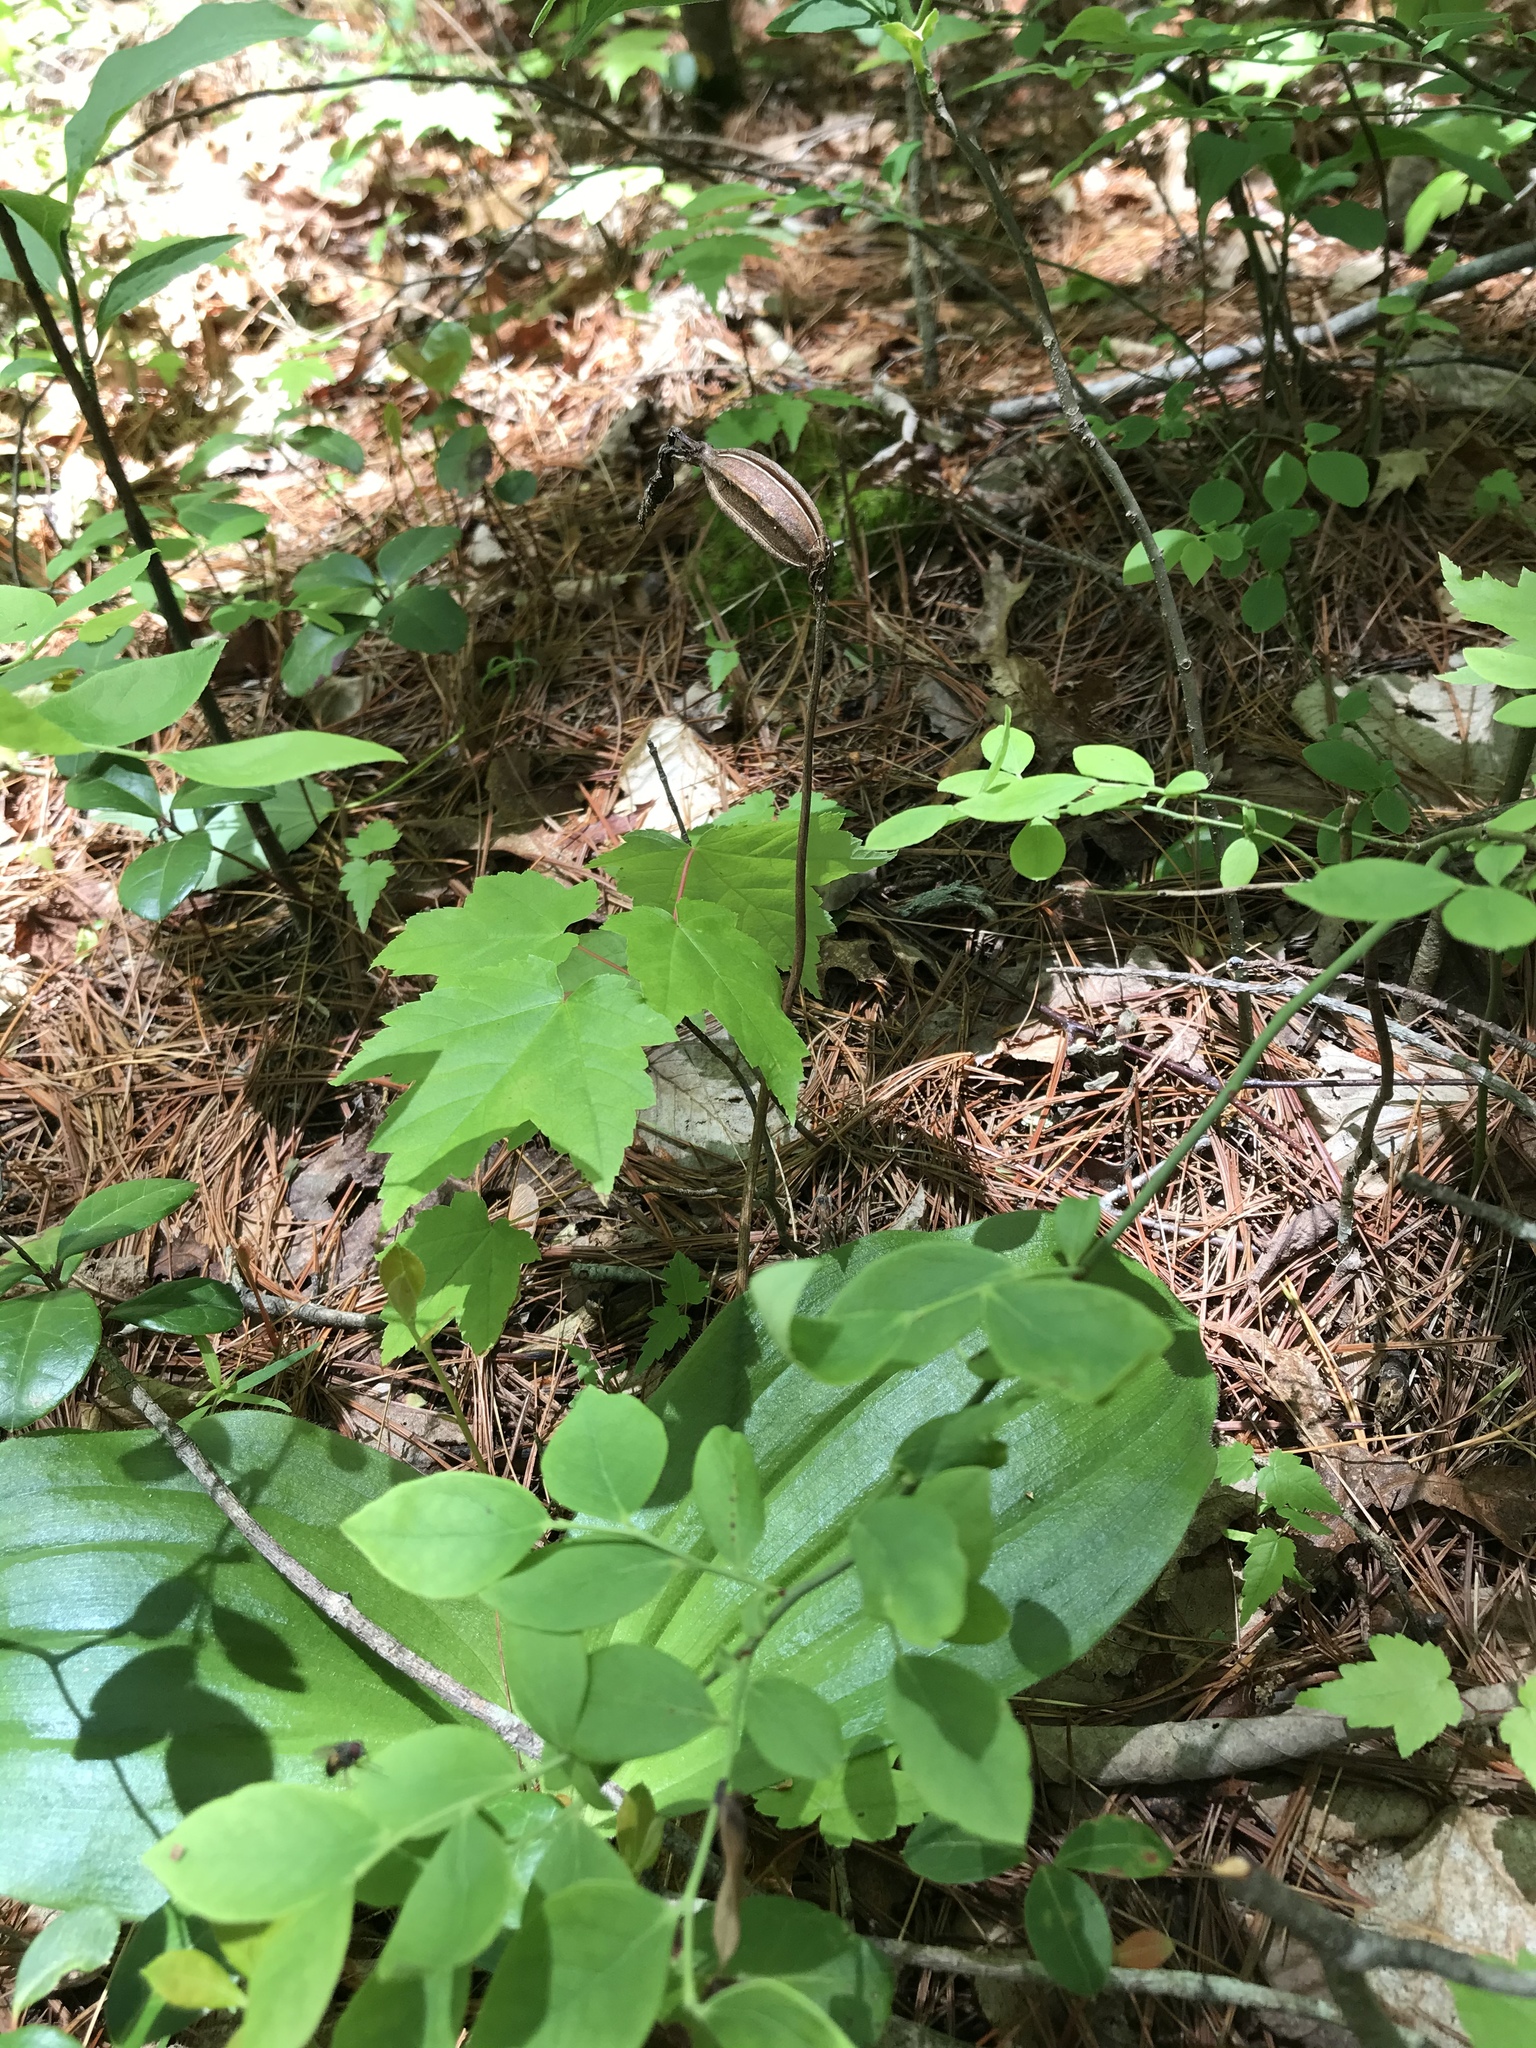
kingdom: Plantae
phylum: Tracheophyta
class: Liliopsida
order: Asparagales
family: Orchidaceae
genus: Cypripedium
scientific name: Cypripedium acaule
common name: Pink lady's-slipper
